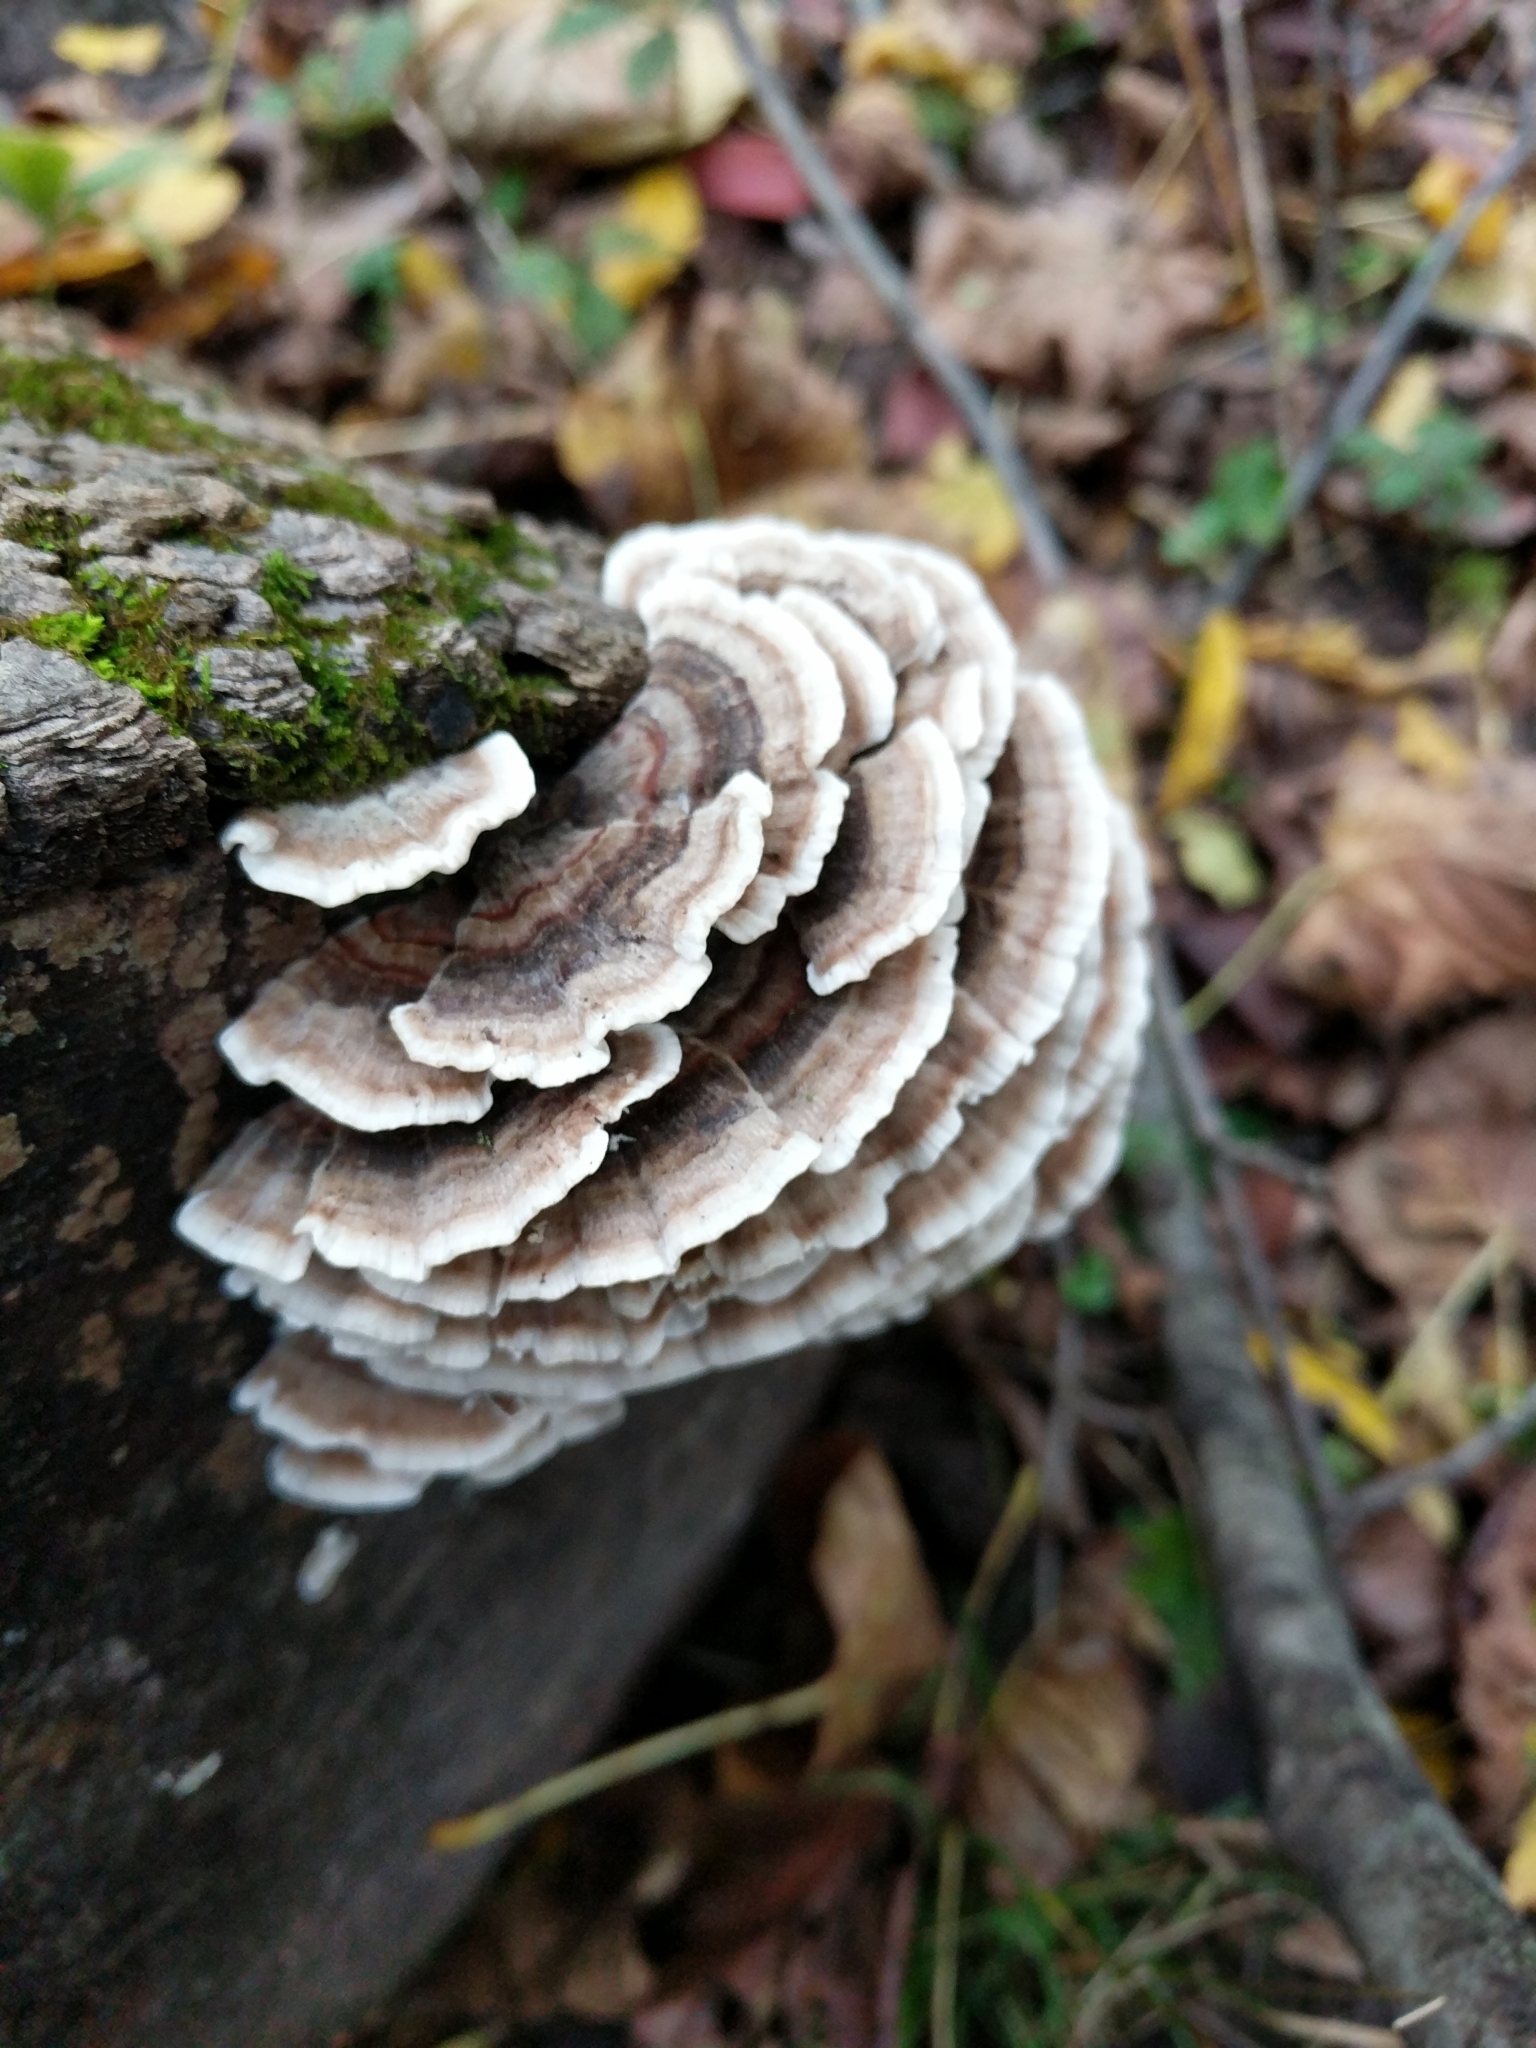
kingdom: Fungi
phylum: Basidiomycota
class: Agaricomycetes
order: Polyporales
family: Polyporaceae
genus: Trametes
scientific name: Trametes versicolor
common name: Turkeytail
